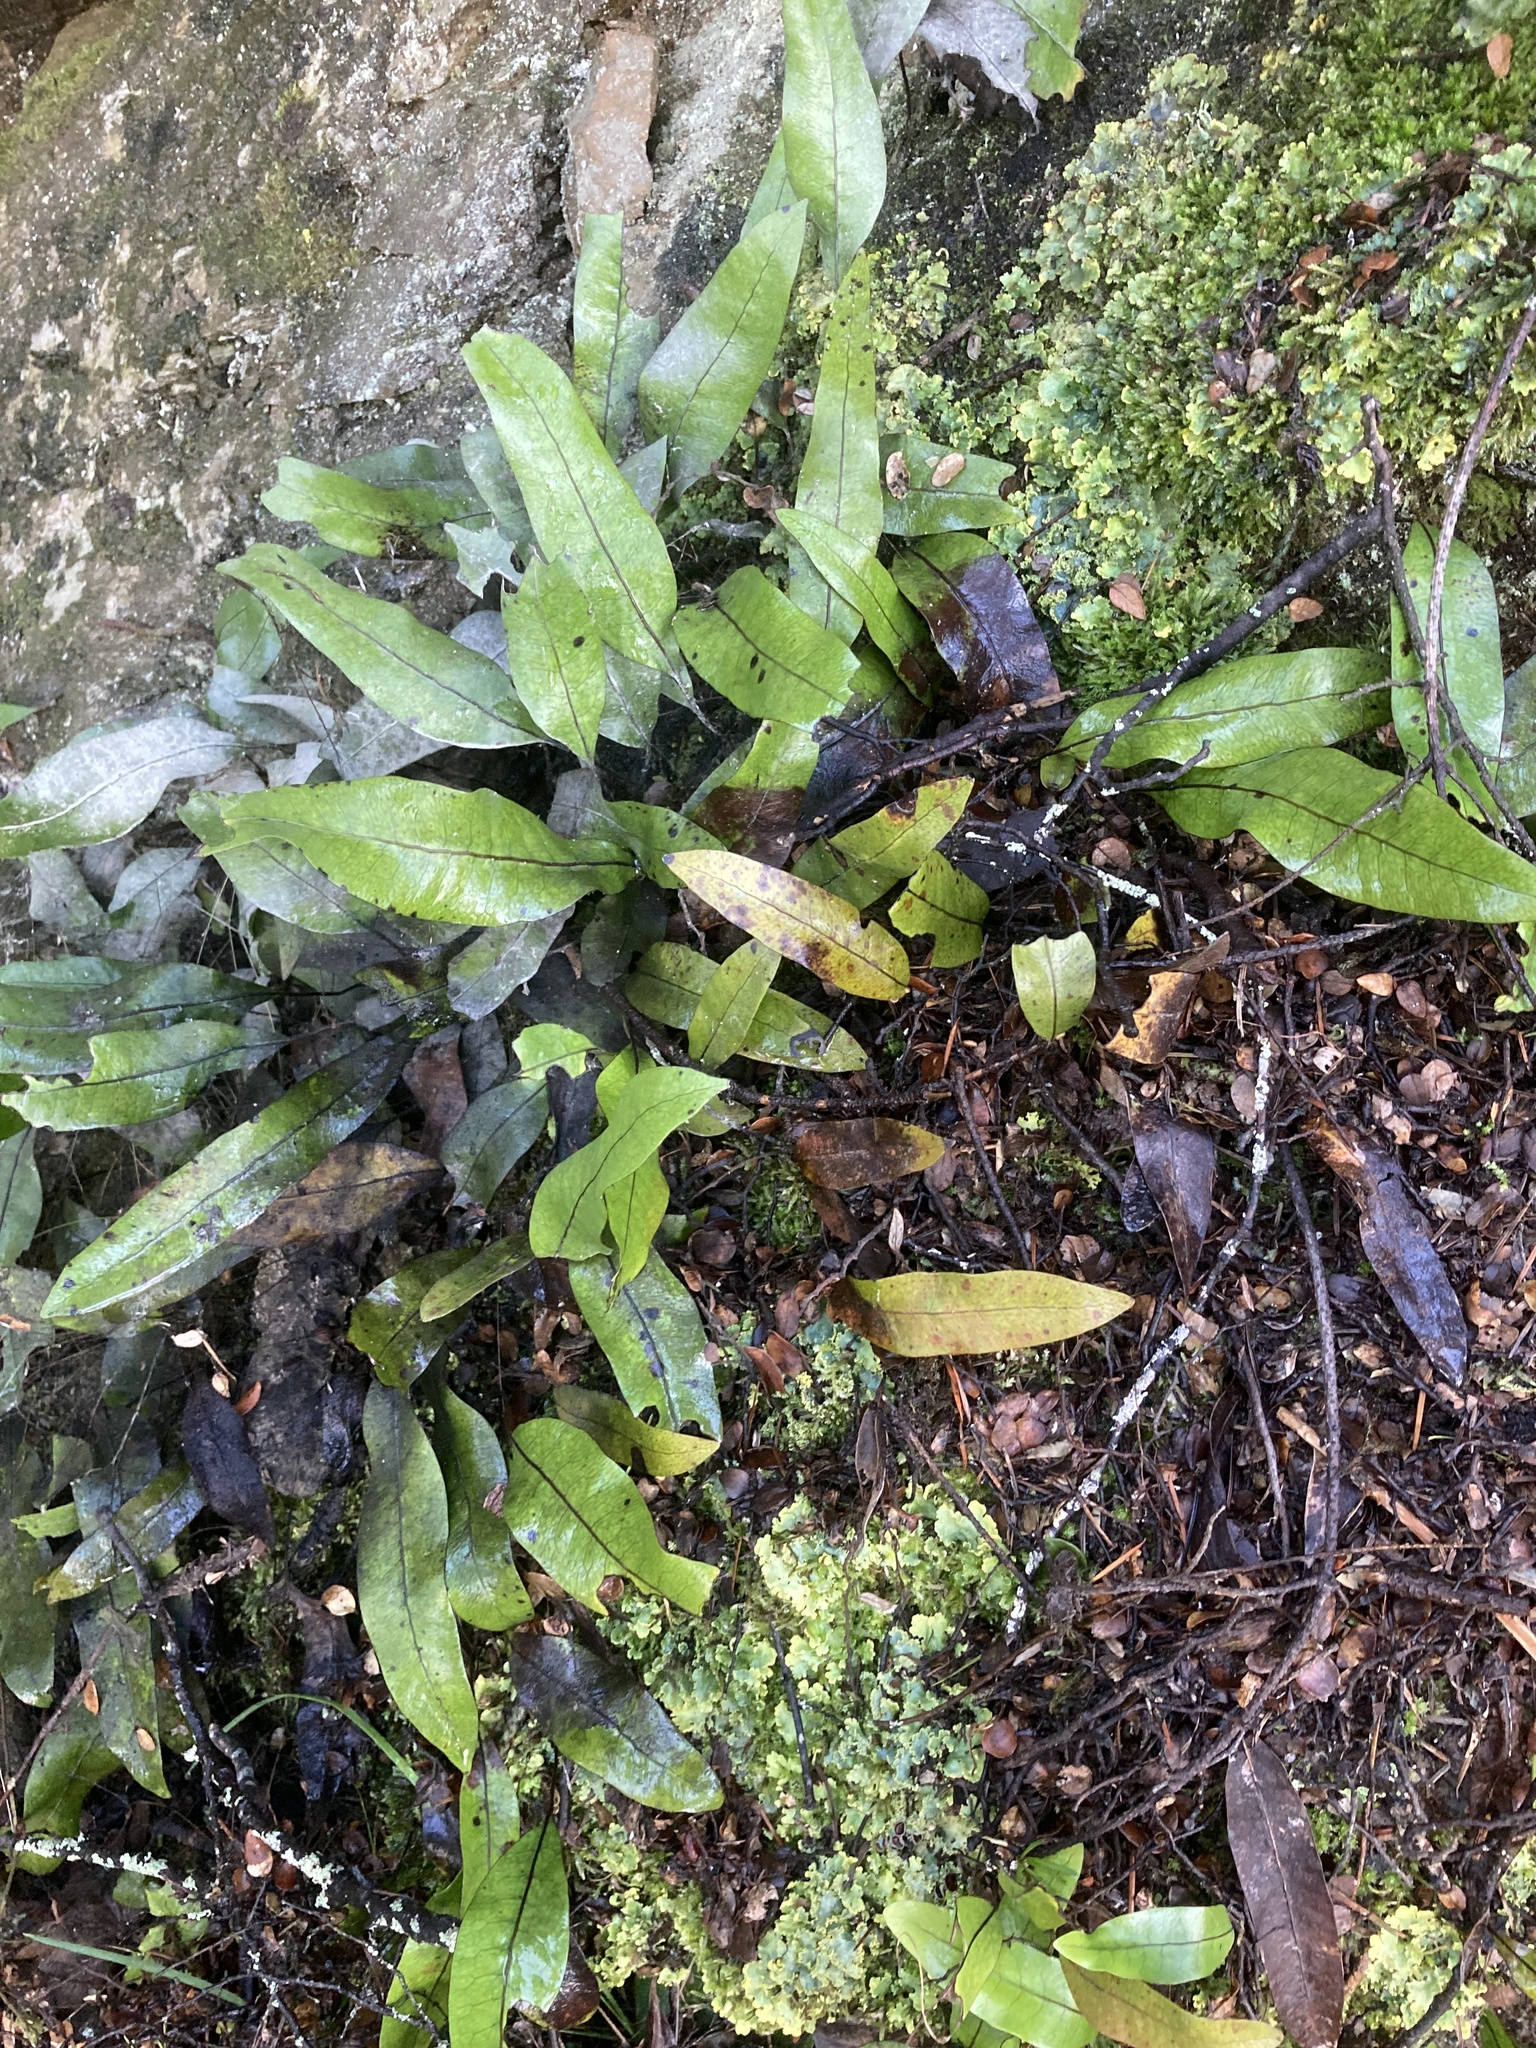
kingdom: Plantae
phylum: Tracheophyta
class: Polypodiopsida
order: Polypodiales
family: Polypodiaceae
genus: Lecanopteris
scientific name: Lecanopteris pustulata
